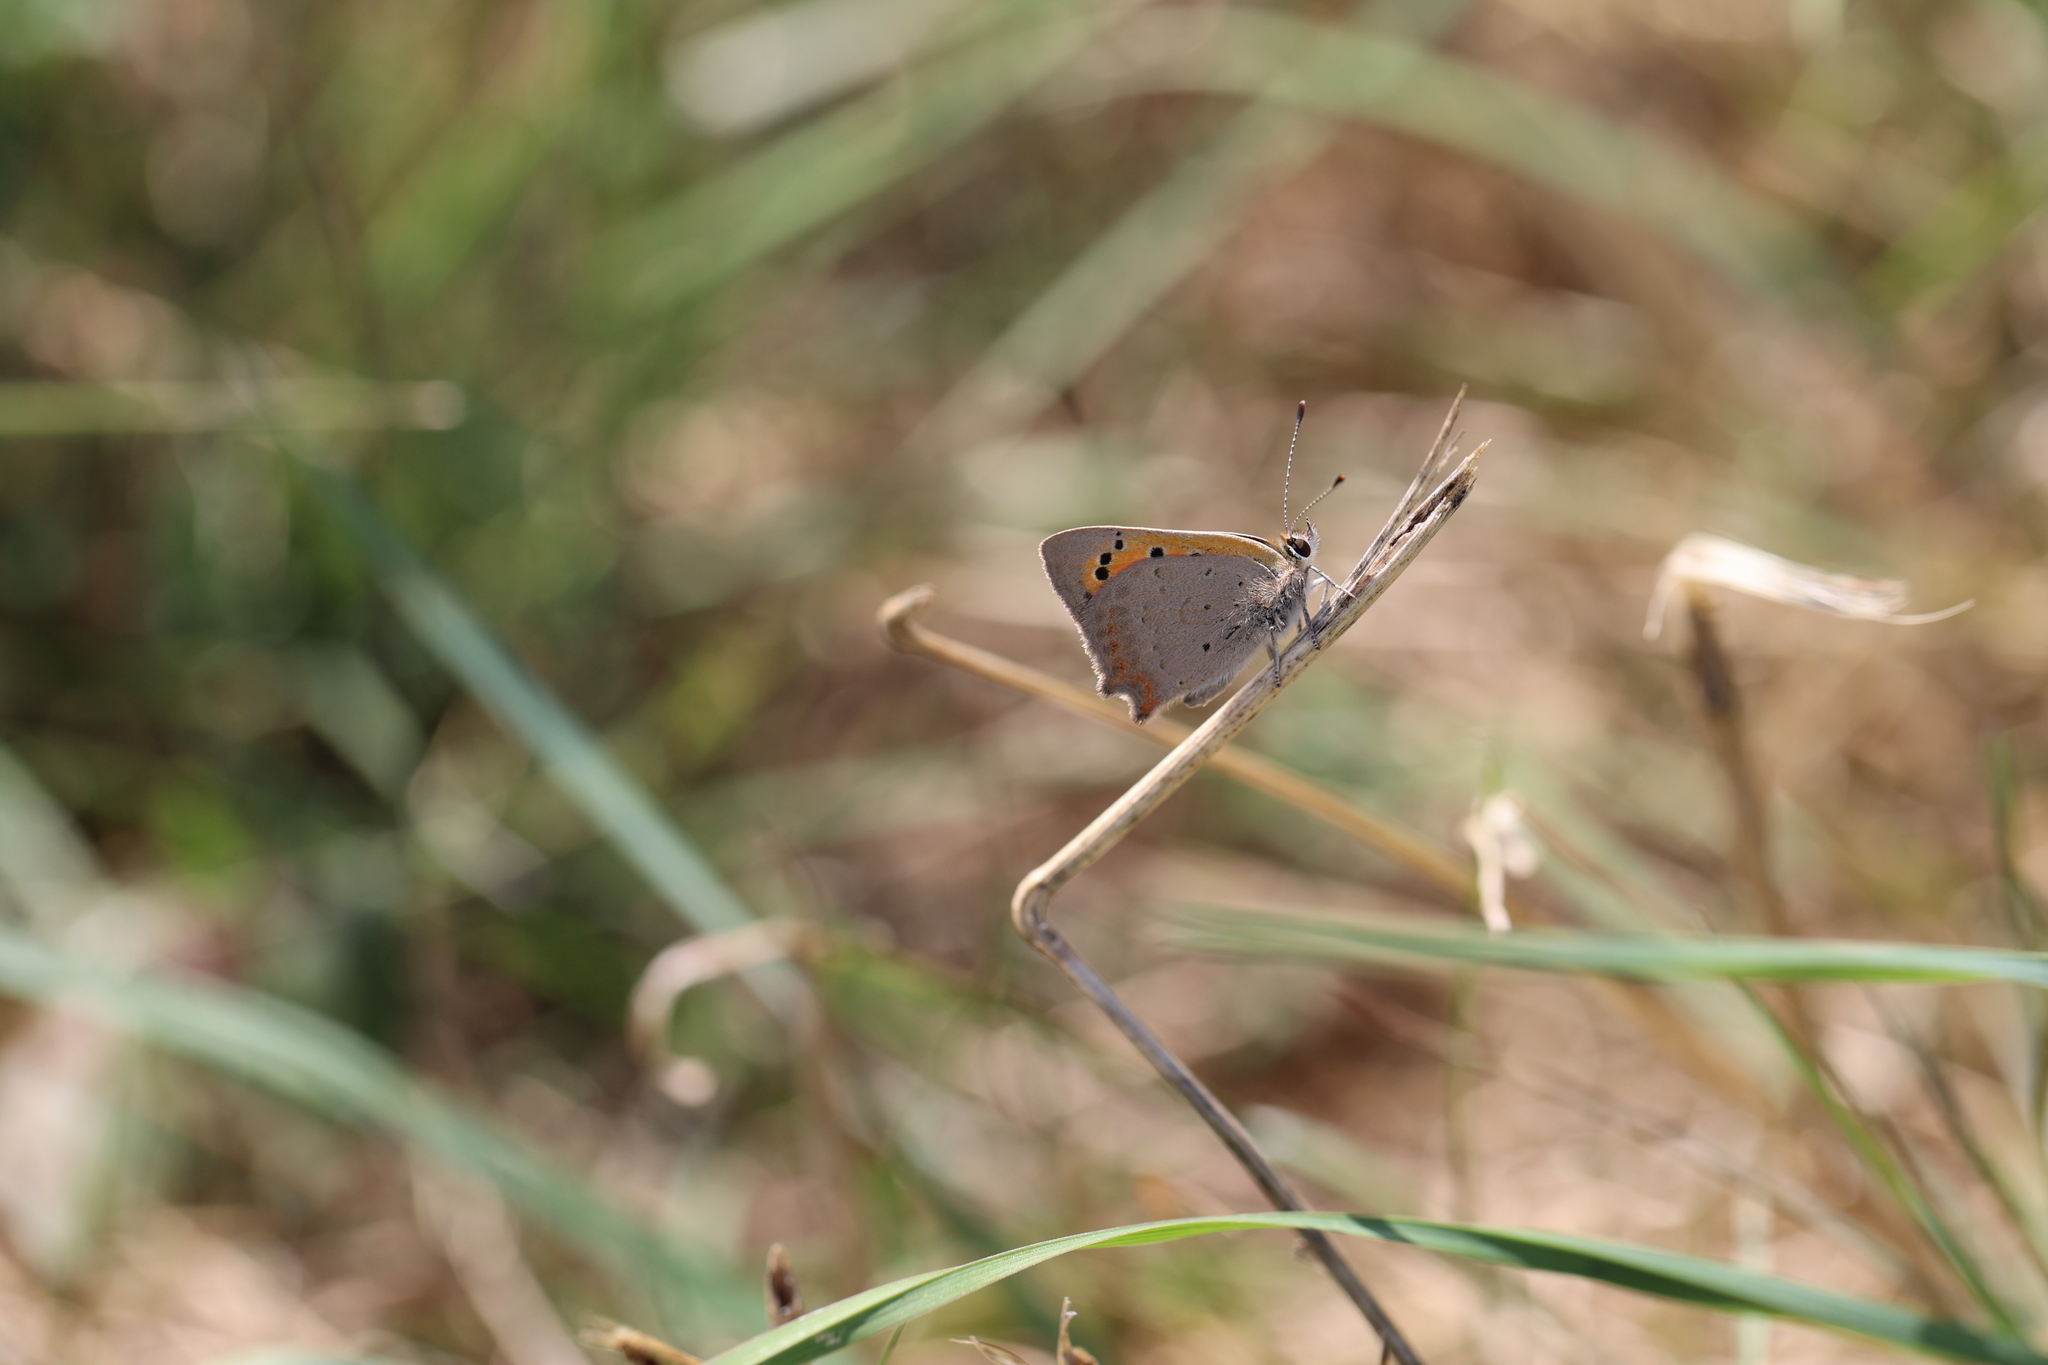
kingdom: Animalia
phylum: Arthropoda
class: Insecta
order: Lepidoptera
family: Lycaenidae
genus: Lycaena
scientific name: Lycaena phlaeas
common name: Small copper
